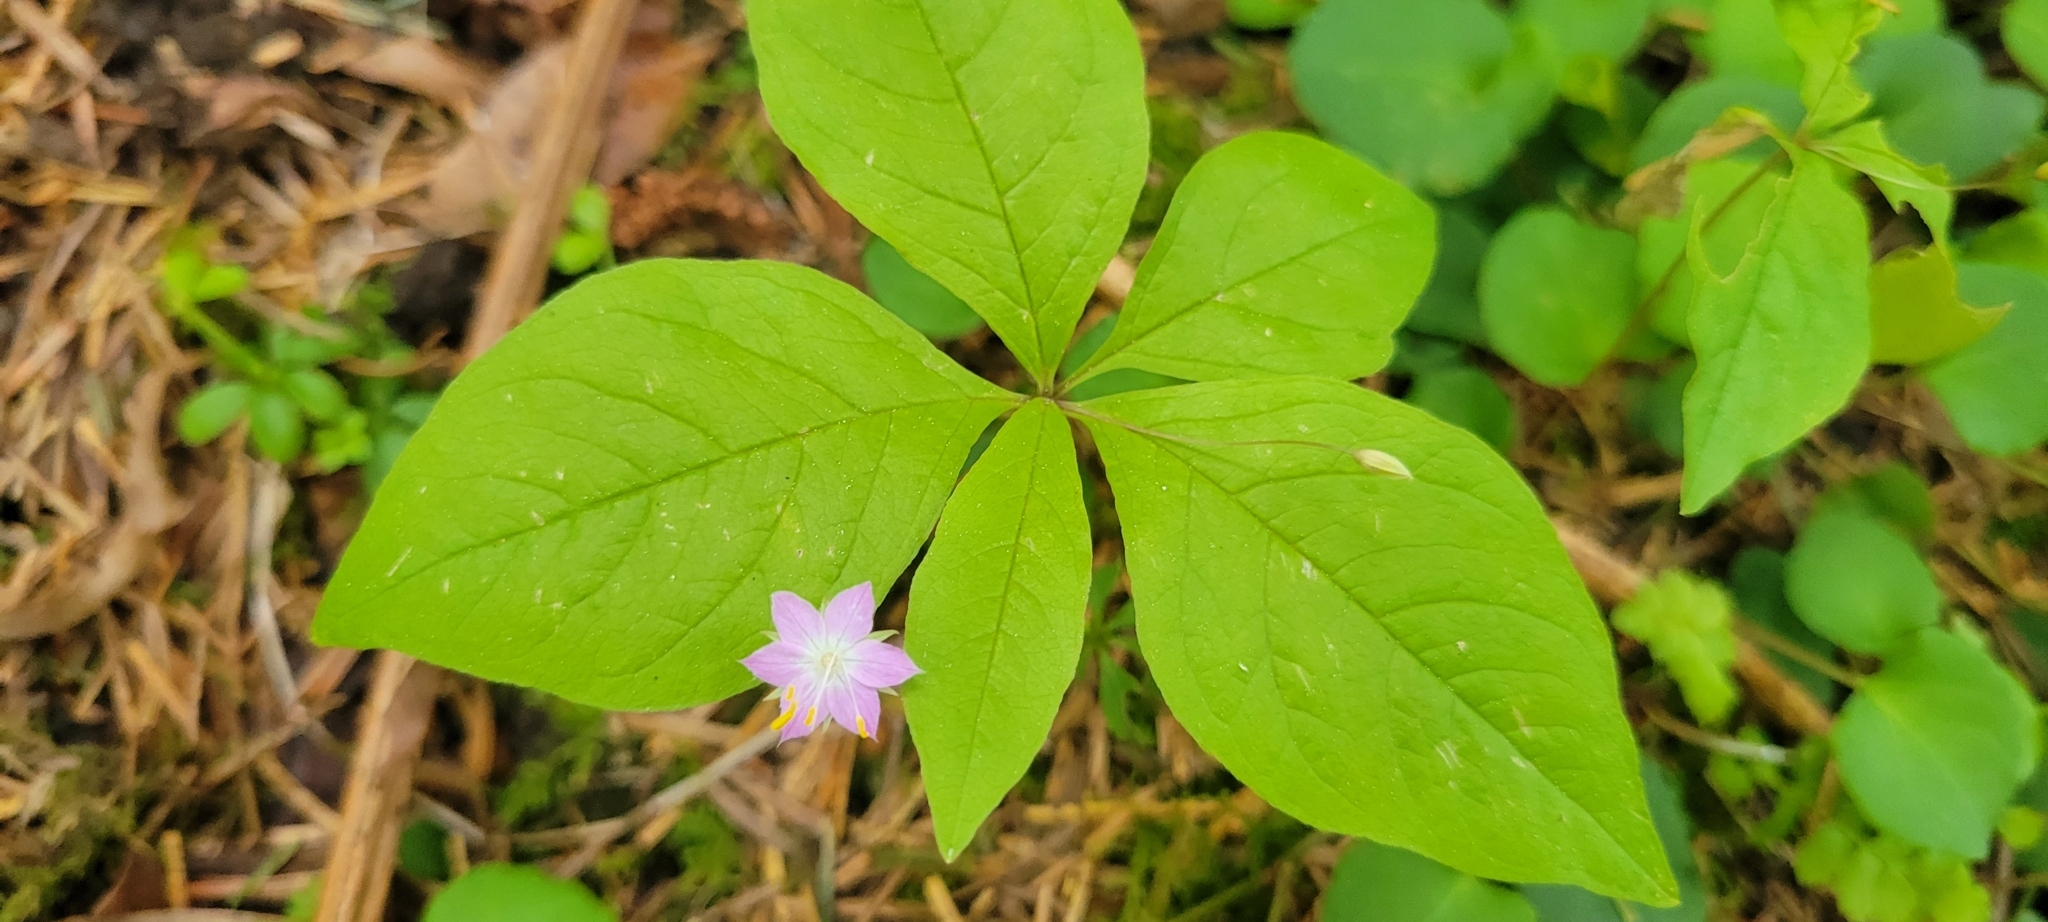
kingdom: Plantae
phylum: Tracheophyta
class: Magnoliopsida
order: Ericales
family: Primulaceae
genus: Lysimachia
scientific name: Lysimachia latifolia
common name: Pacific starflower
